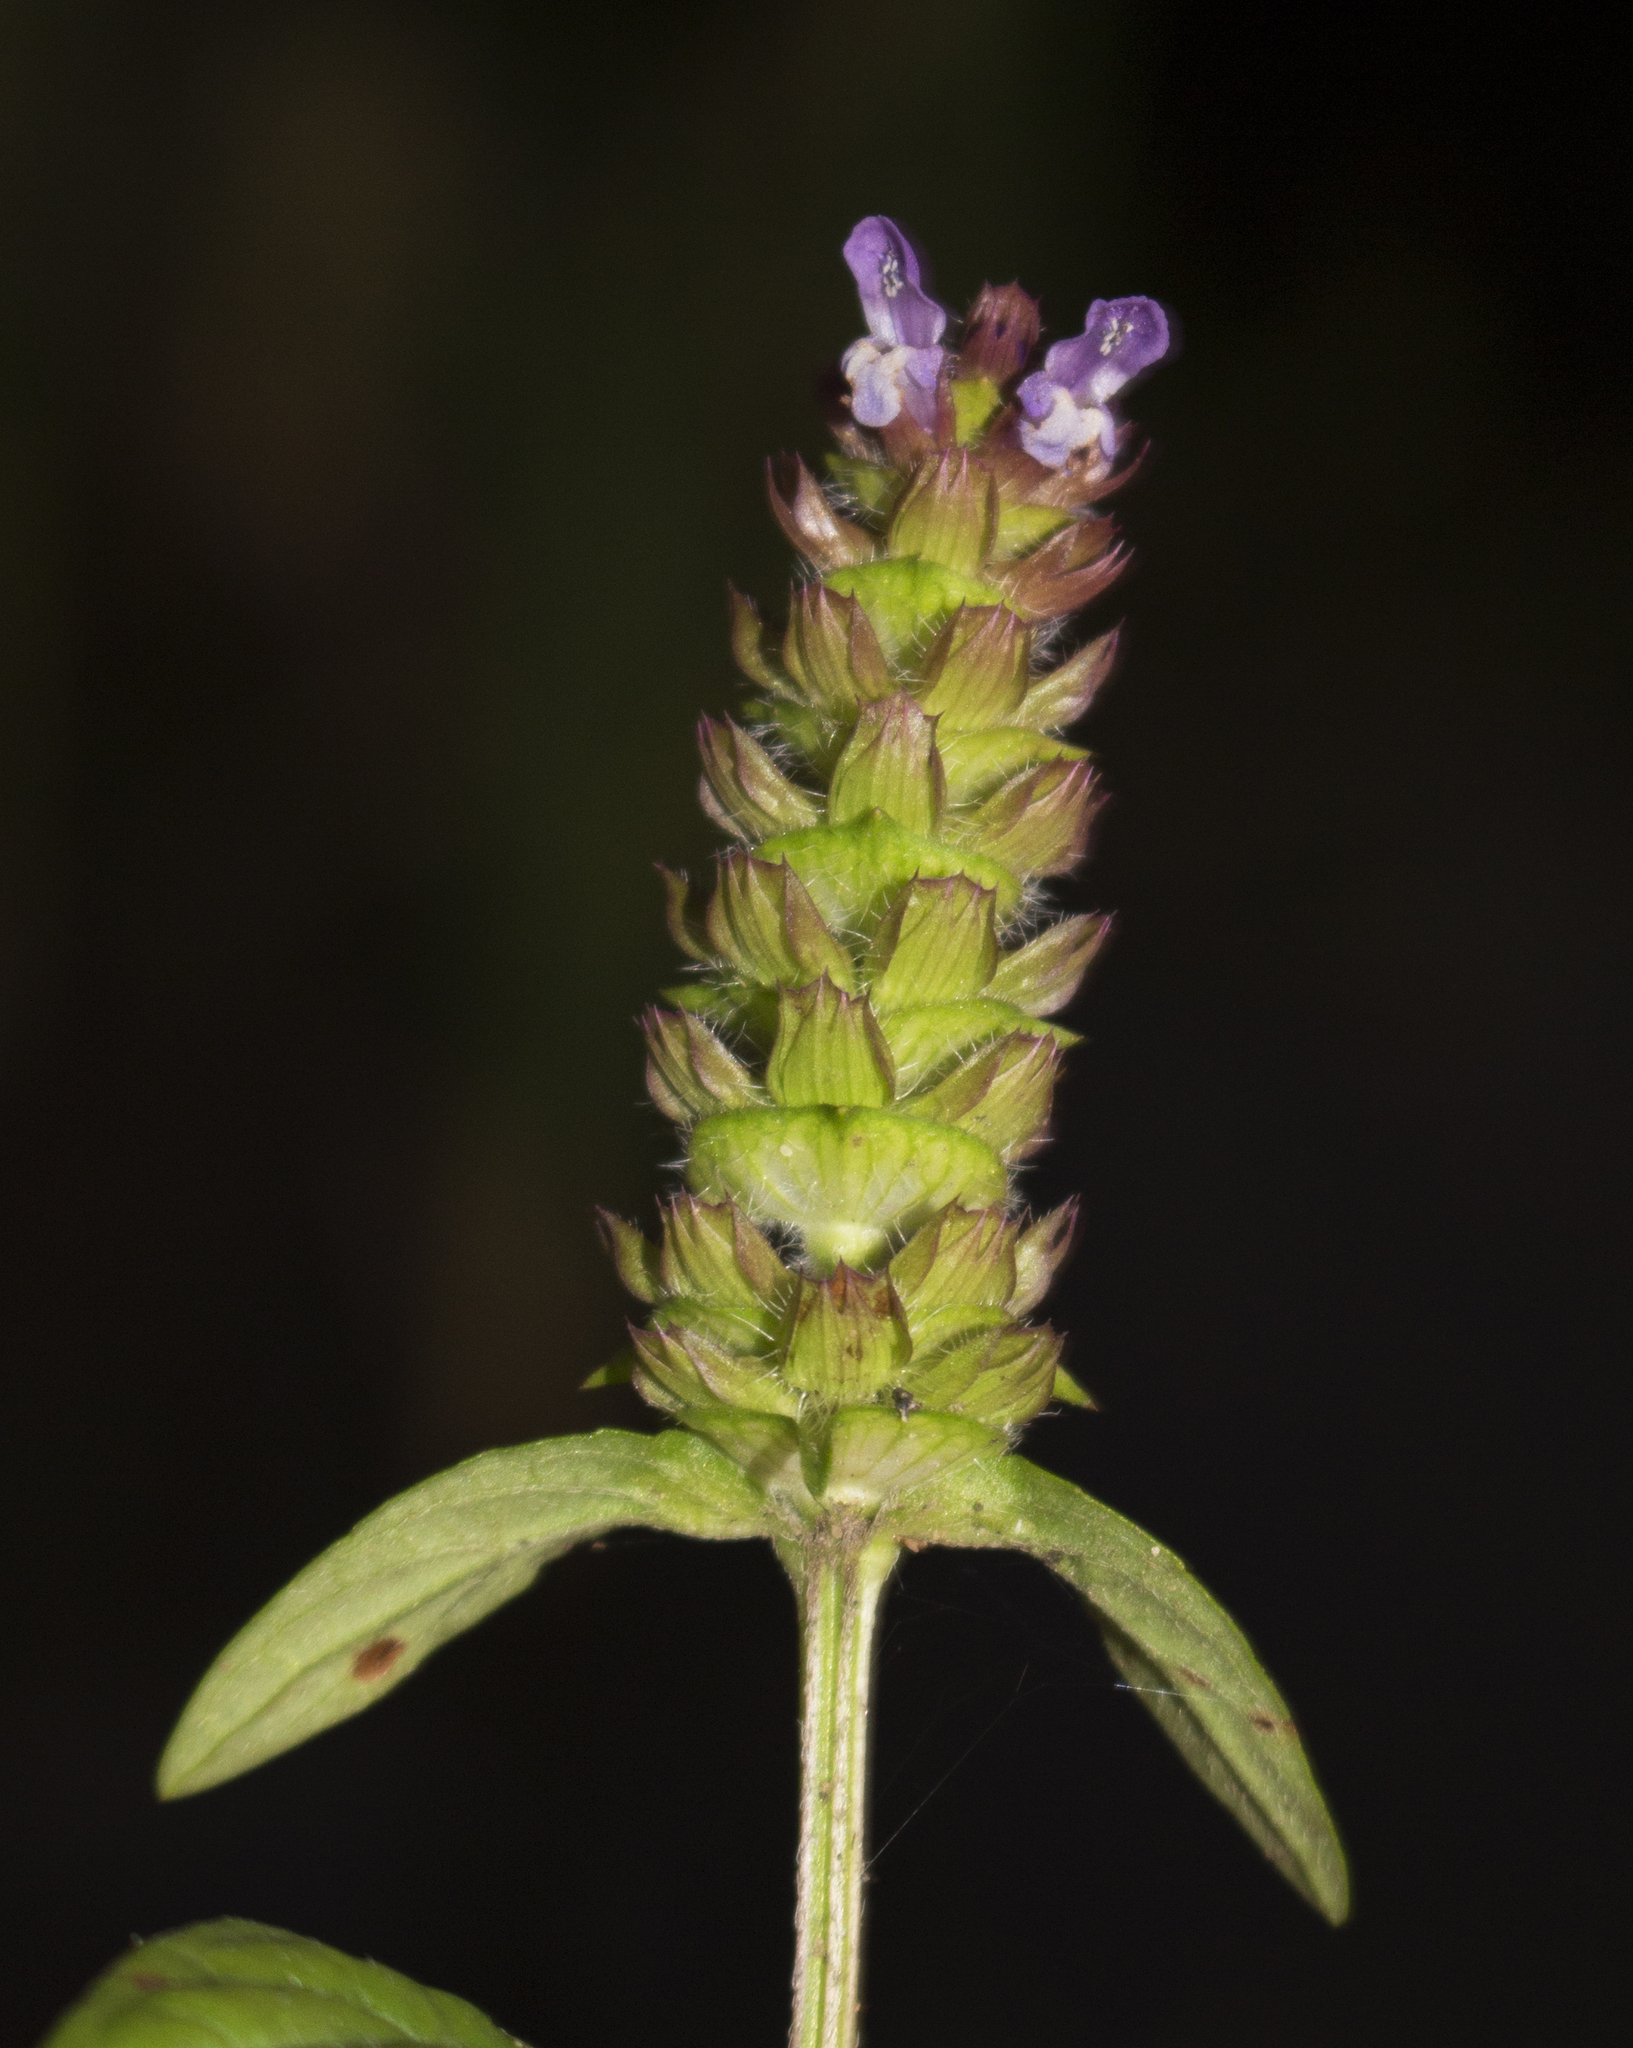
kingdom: Plantae
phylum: Tracheophyta
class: Magnoliopsida
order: Lamiales
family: Lamiaceae
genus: Prunella
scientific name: Prunella vulgaris
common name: Heal-all
